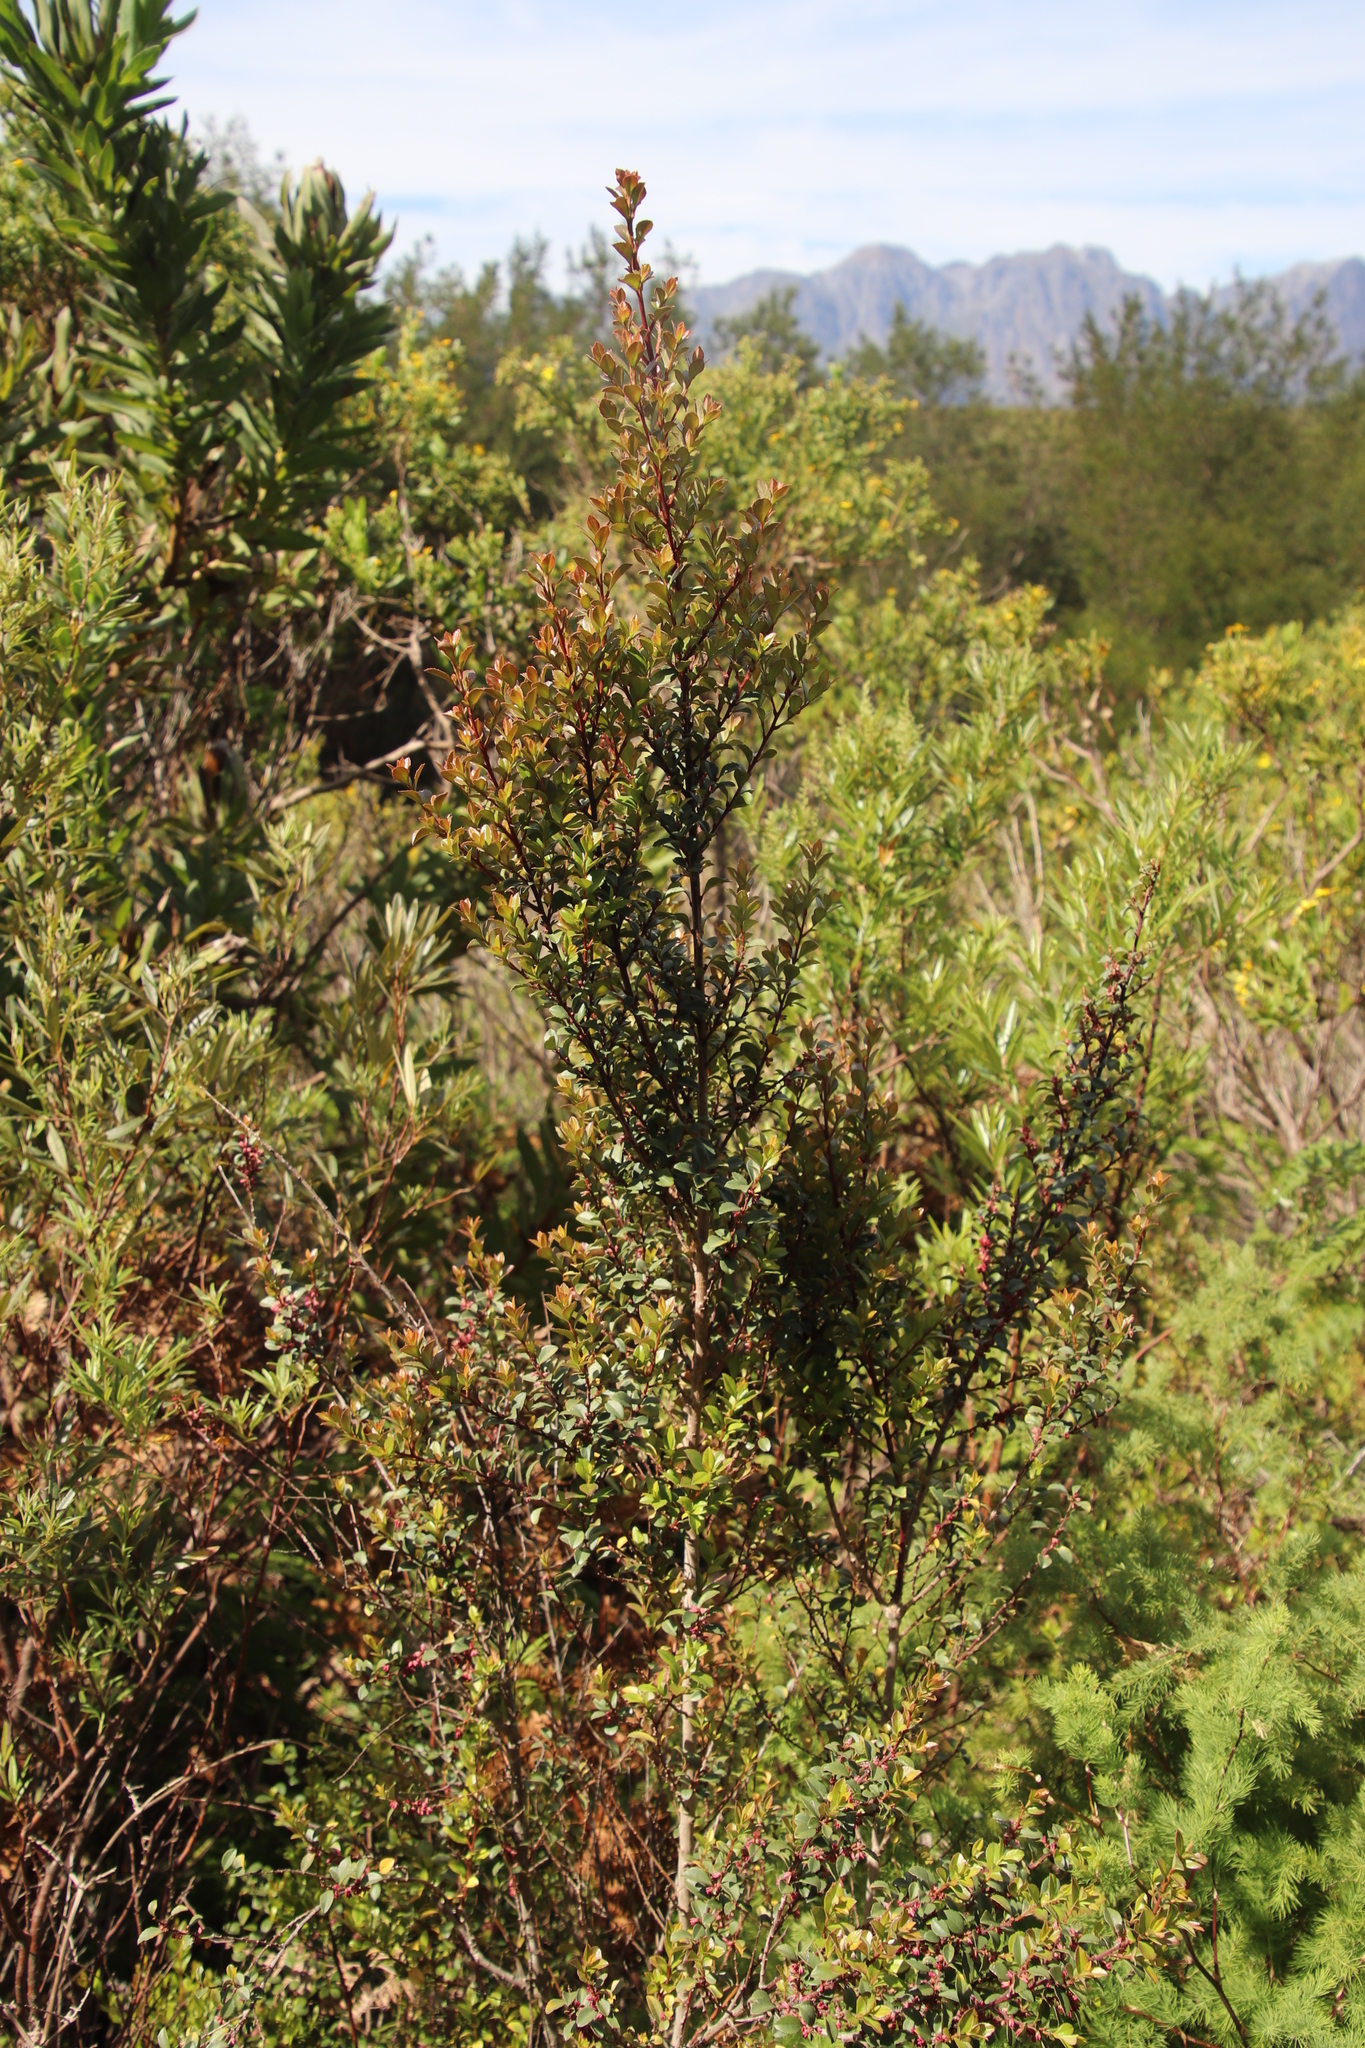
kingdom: Plantae
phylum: Tracheophyta
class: Magnoliopsida
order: Ericales
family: Primulaceae
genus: Myrsine
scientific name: Myrsine africana
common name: African-boxwood
